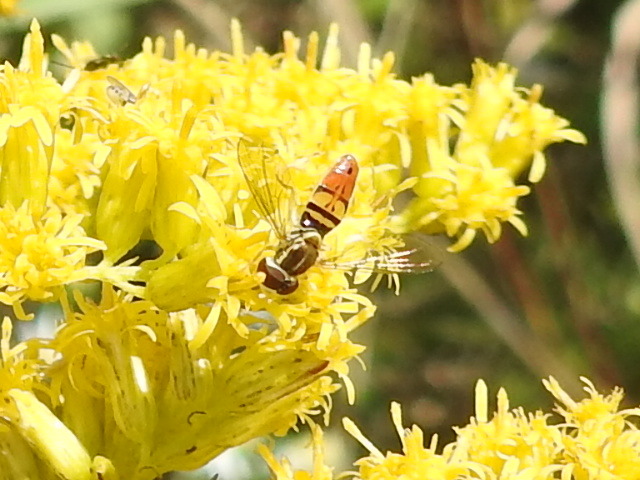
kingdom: Animalia
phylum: Arthropoda
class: Insecta
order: Diptera
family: Syrphidae
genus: Toxomerus
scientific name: Toxomerus marginatus
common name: Syrphid fly
